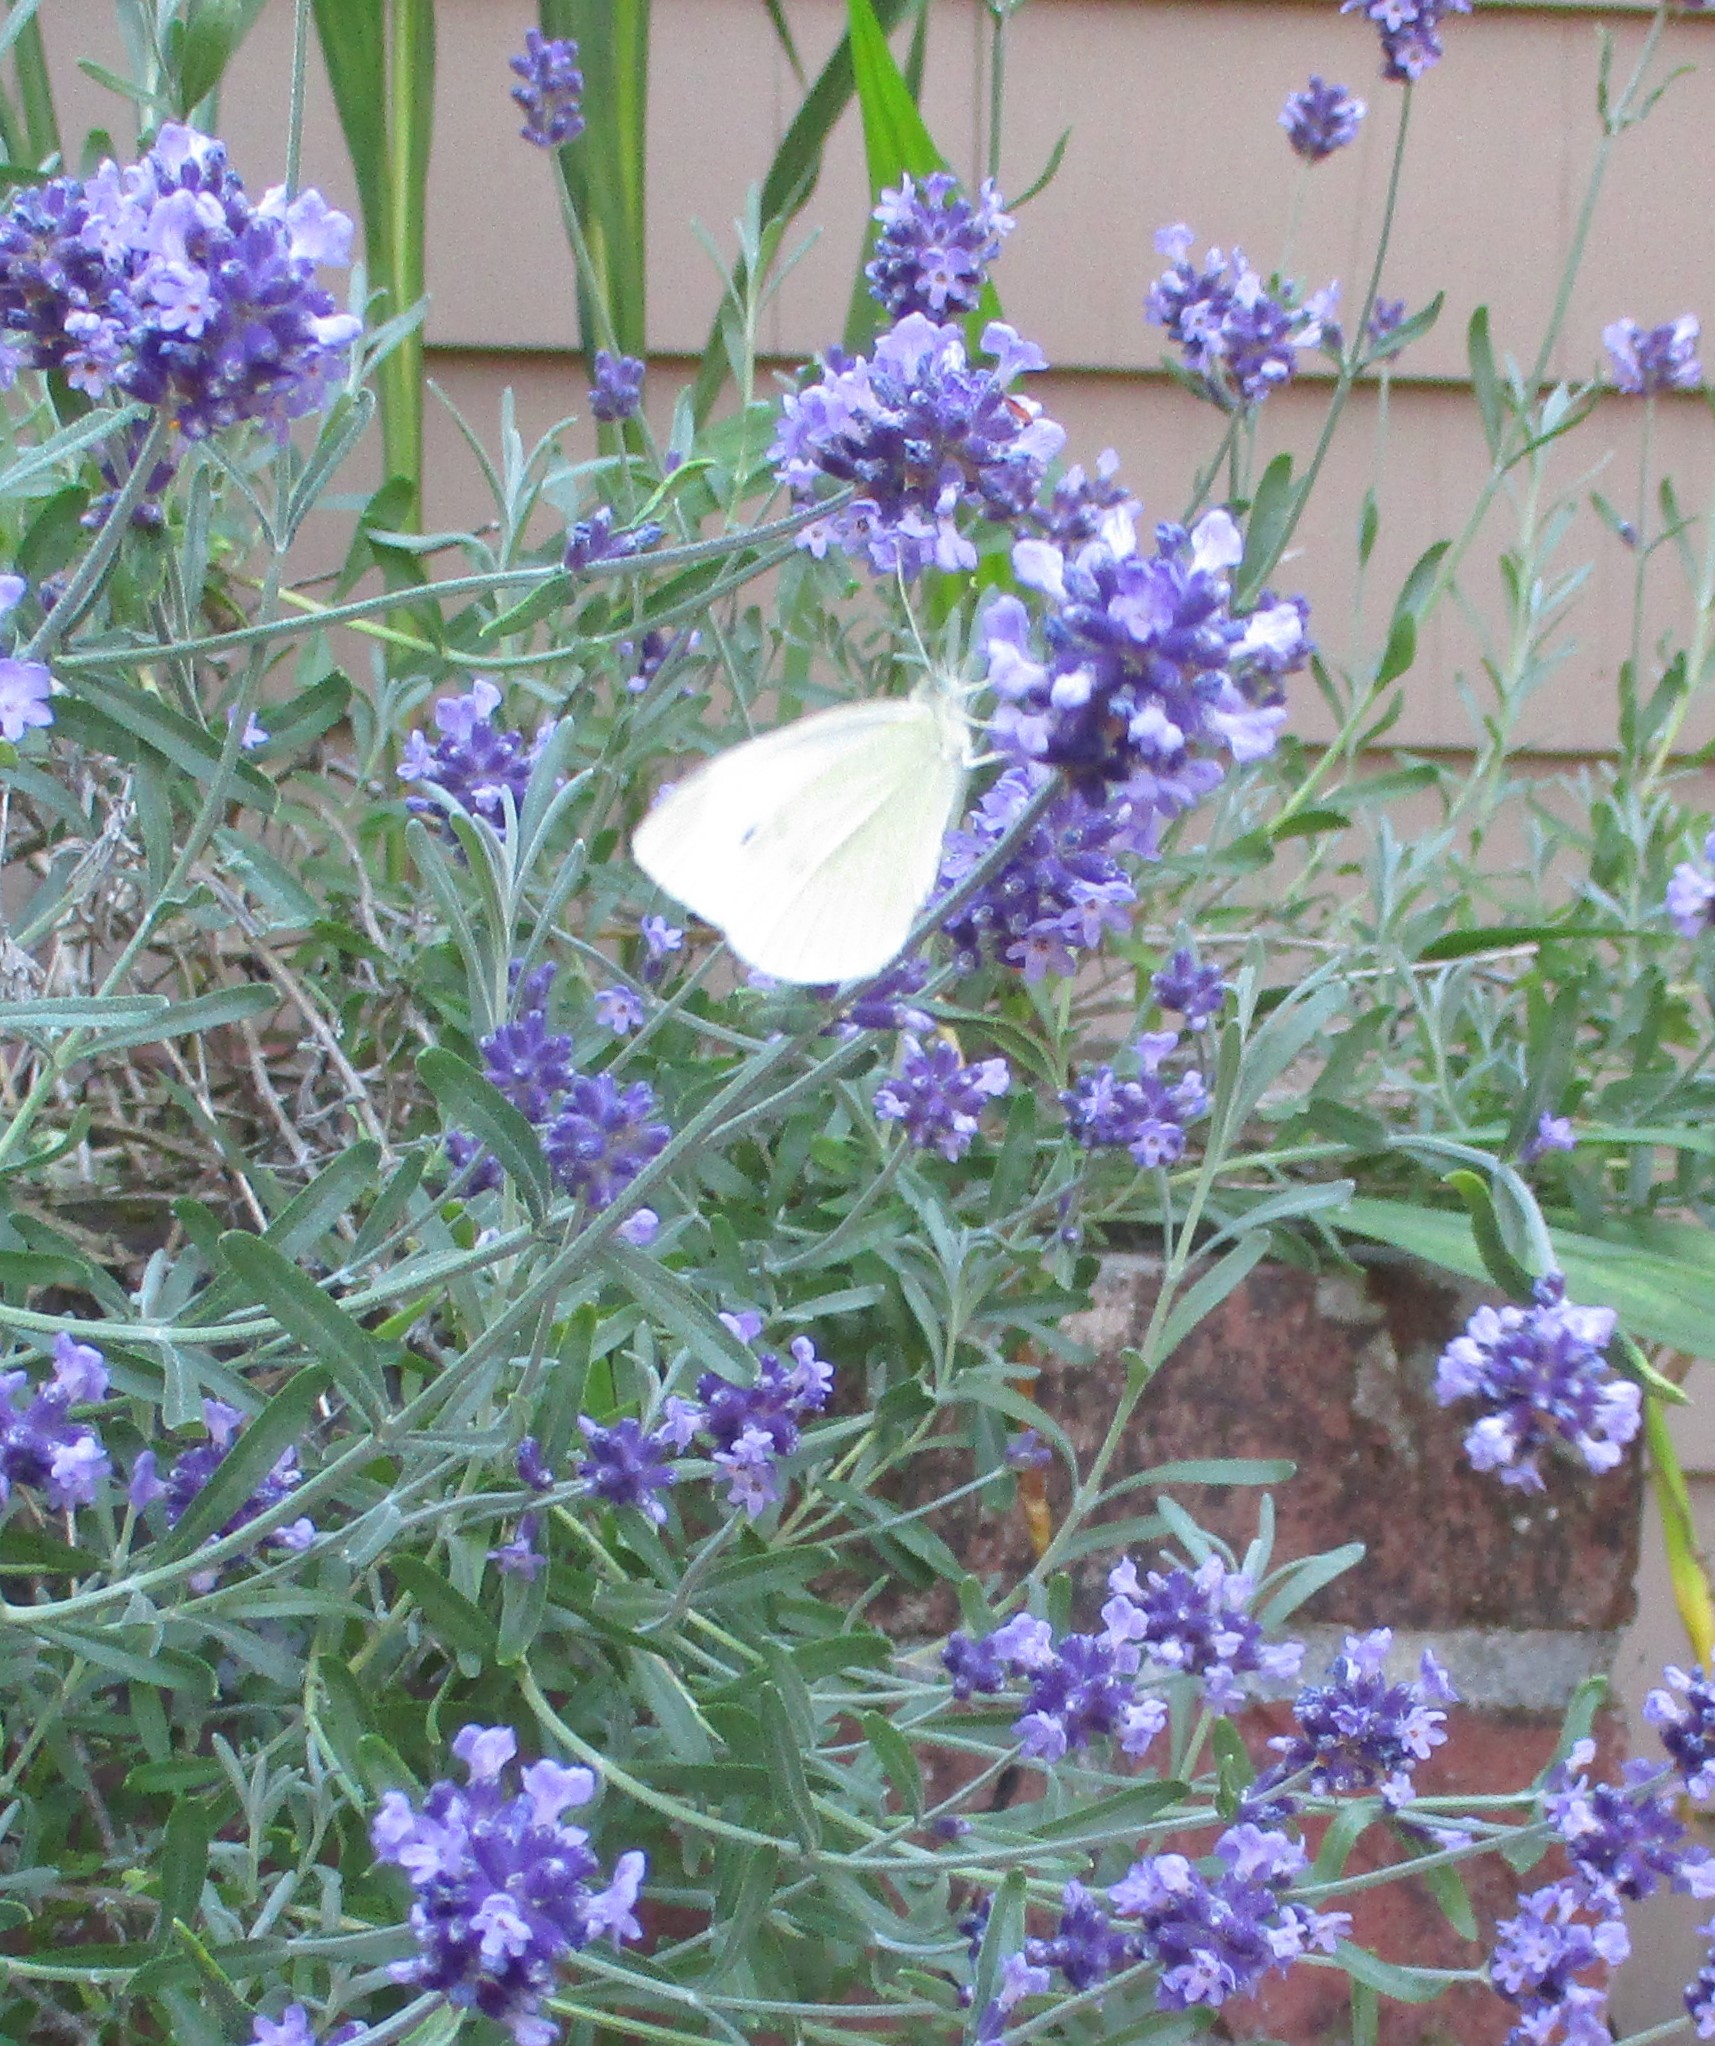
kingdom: Animalia
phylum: Arthropoda
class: Insecta
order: Lepidoptera
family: Pieridae
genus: Pieris
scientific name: Pieris rapae
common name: Small white
